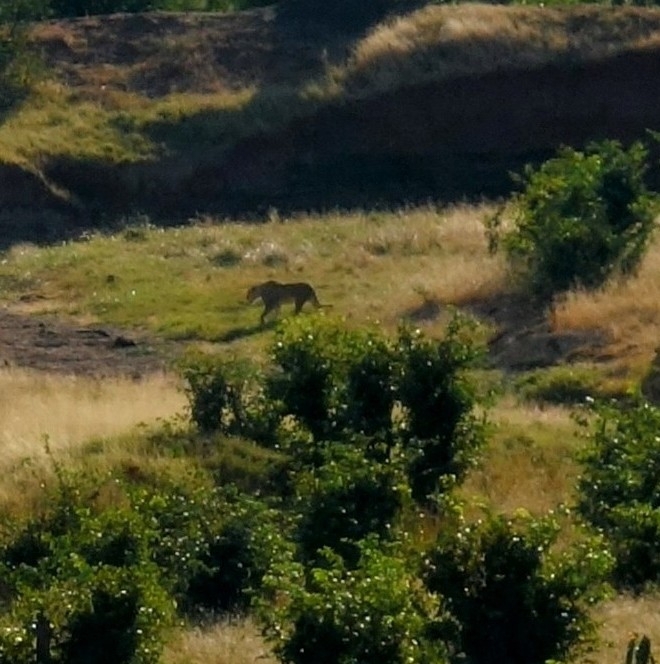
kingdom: Animalia
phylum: Chordata
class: Mammalia
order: Carnivora
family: Felidae
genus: Panthera
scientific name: Panthera leo
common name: Lion
